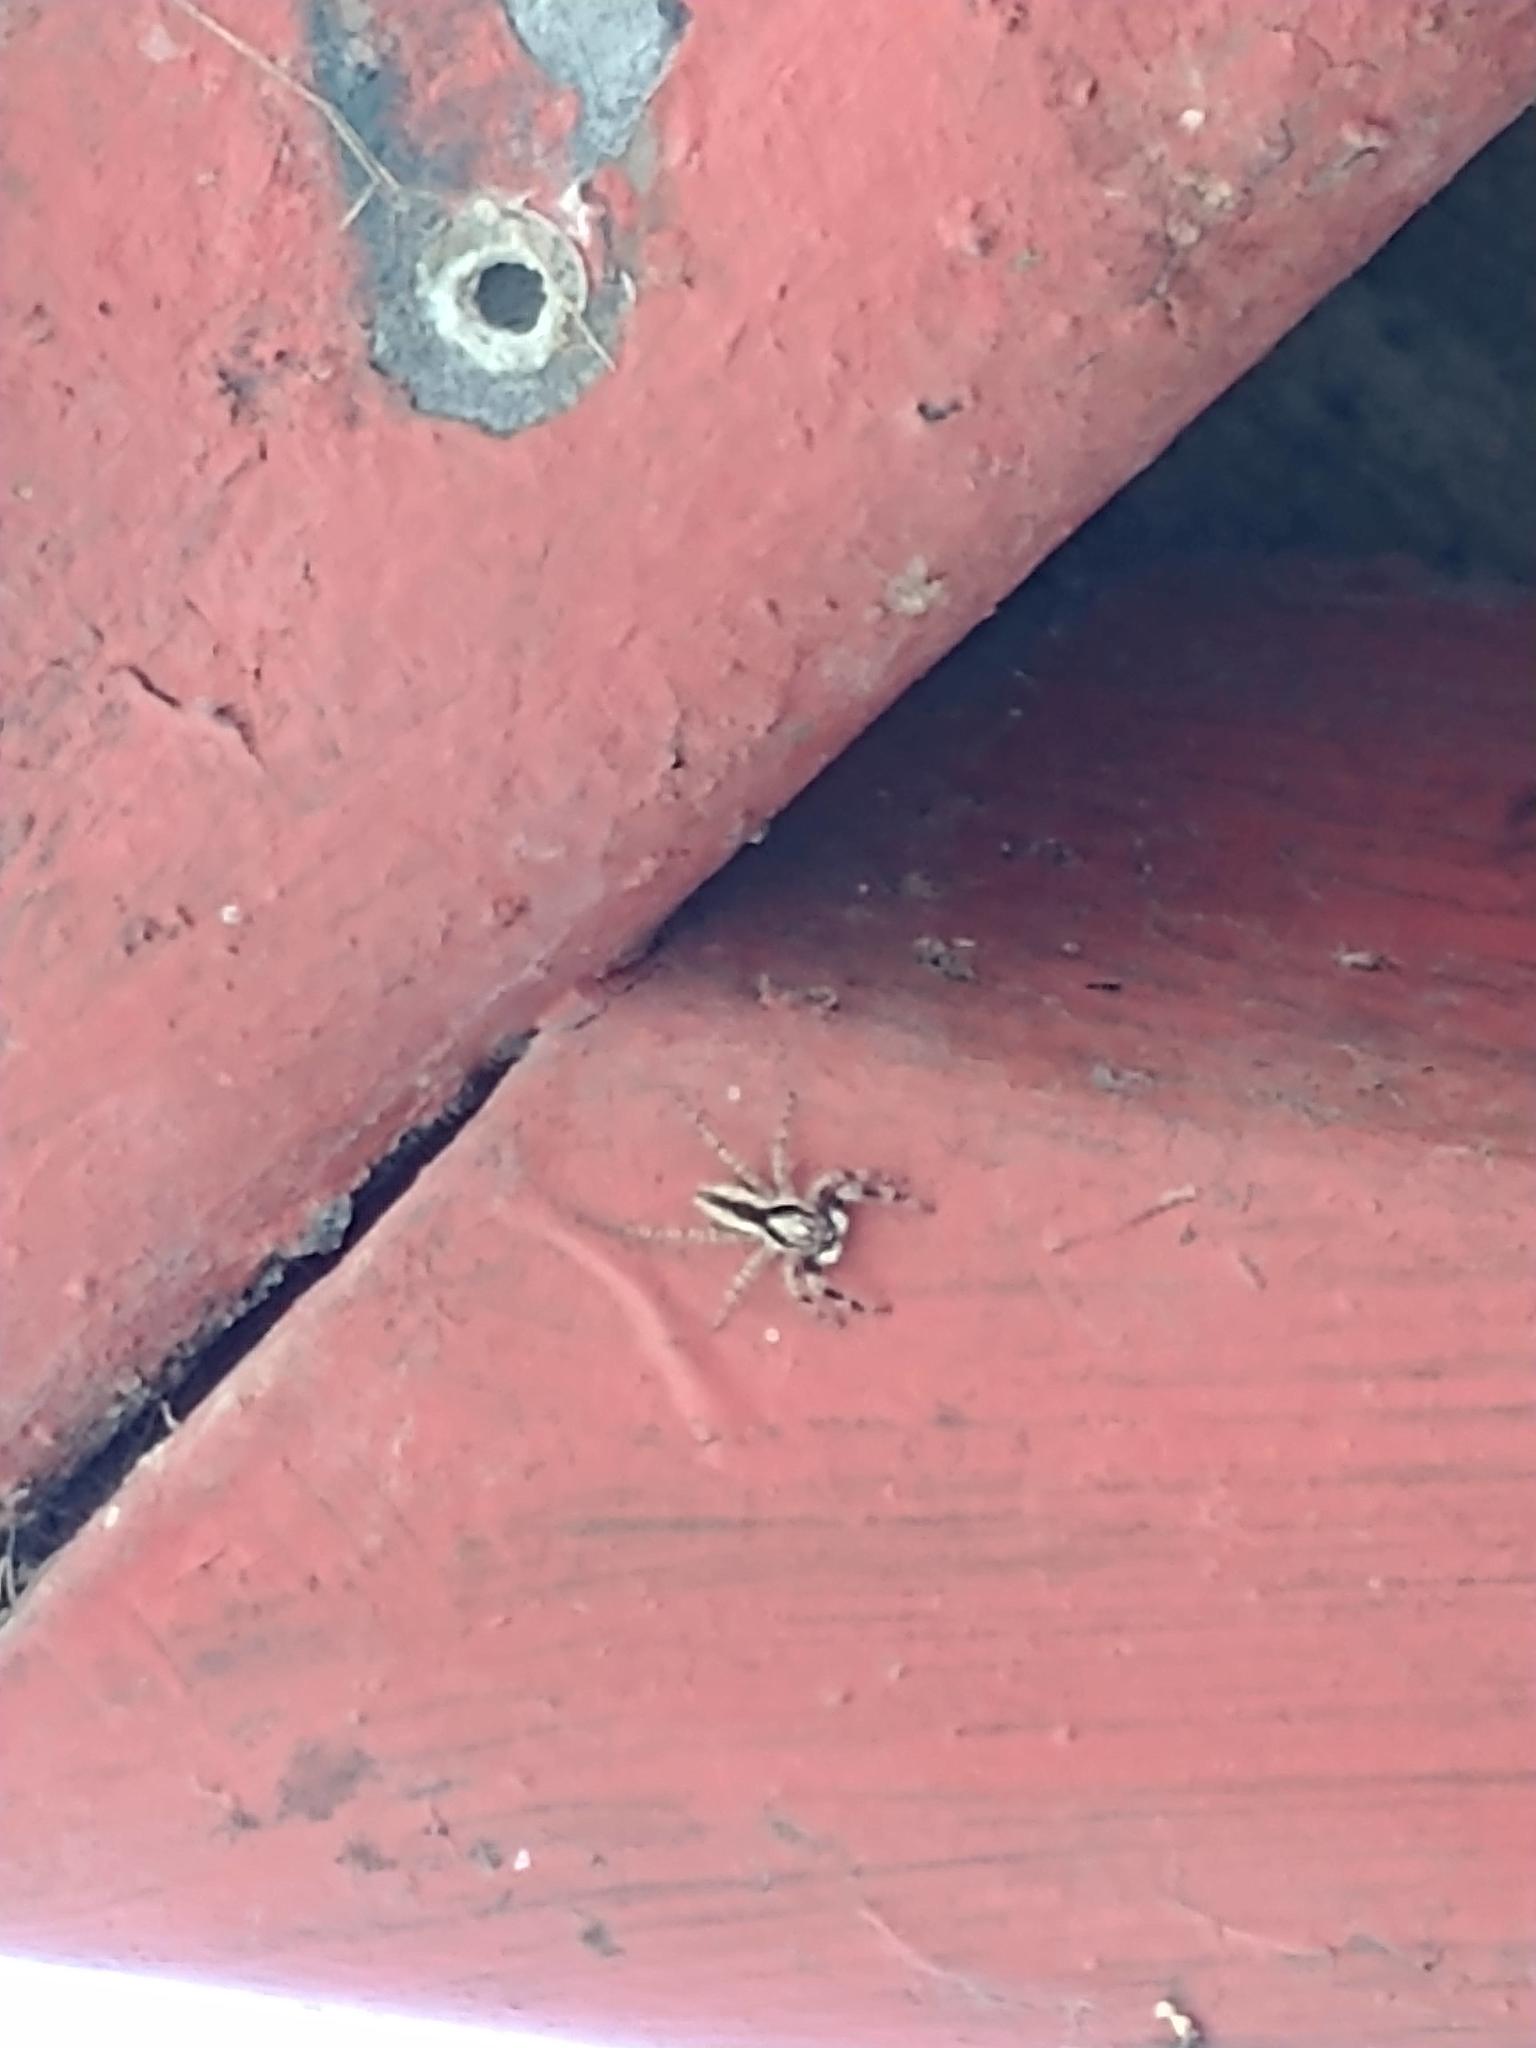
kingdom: Animalia
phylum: Arthropoda
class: Arachnida
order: Araneae
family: Salticidae
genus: Menemerus
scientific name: Menemerus bivittatus
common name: Gray wall jumper
